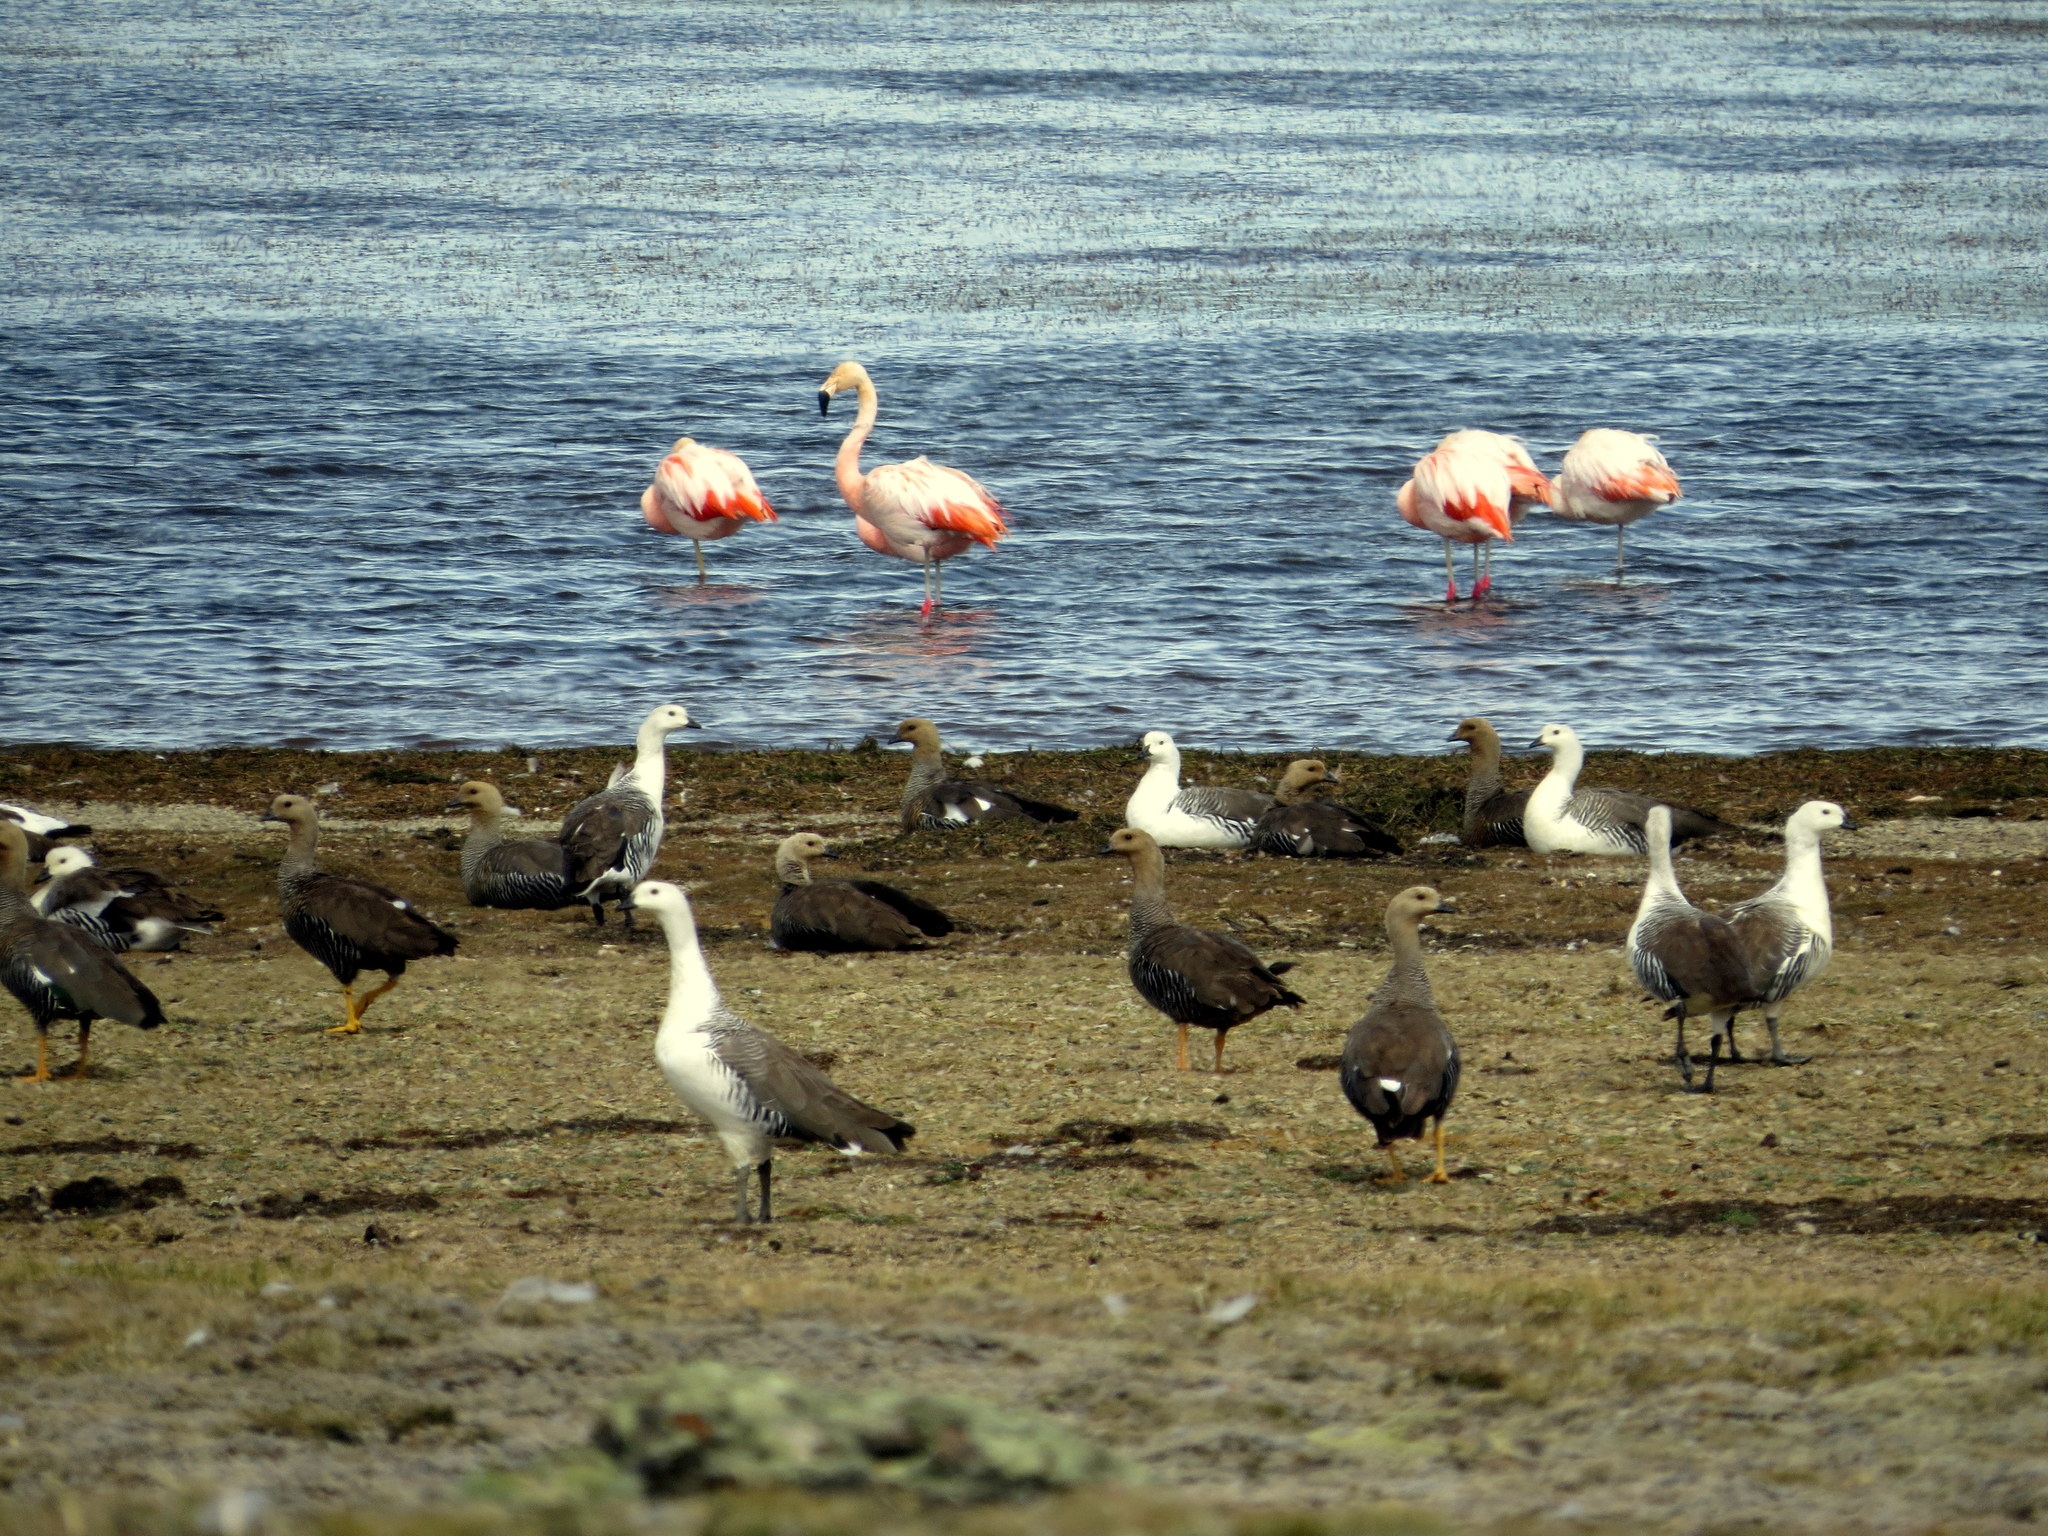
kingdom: Animalia
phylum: Chordata
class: Aves
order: Anseriformes
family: Anatidae
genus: Chloephaga
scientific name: Chloephaga picta
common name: Upland goose
